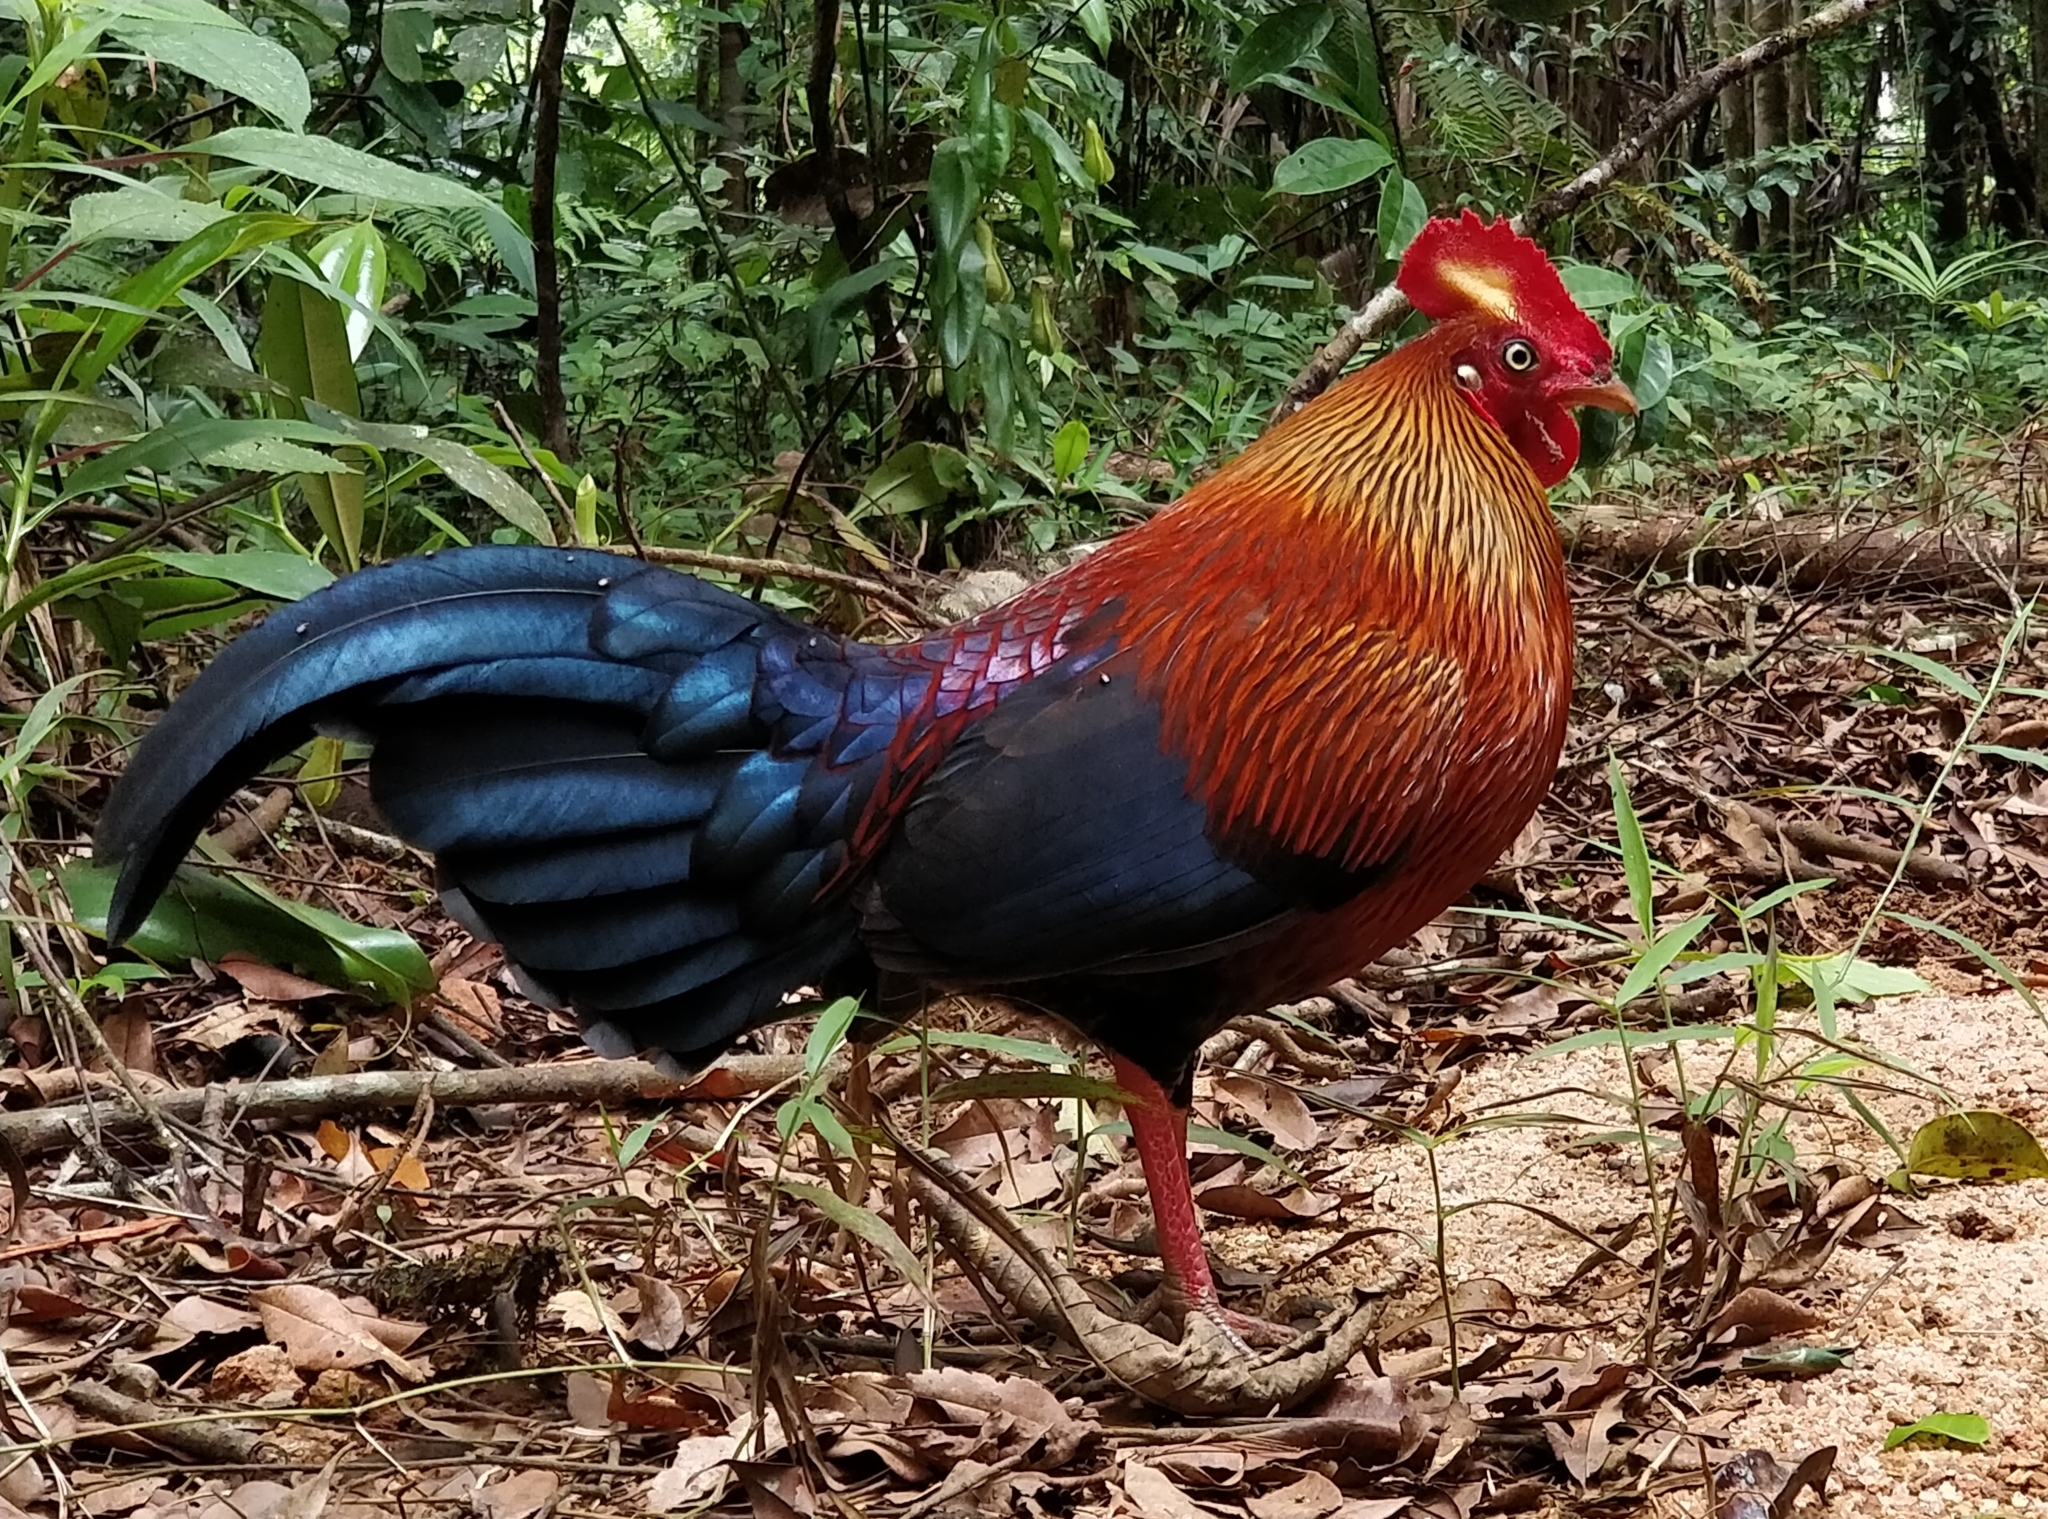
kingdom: Animalia
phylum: Chordata
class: Aves
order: Galliformes
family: Phasianidae
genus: Gallus
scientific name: Gallus lafayettii
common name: Sri lanka junglefowl
